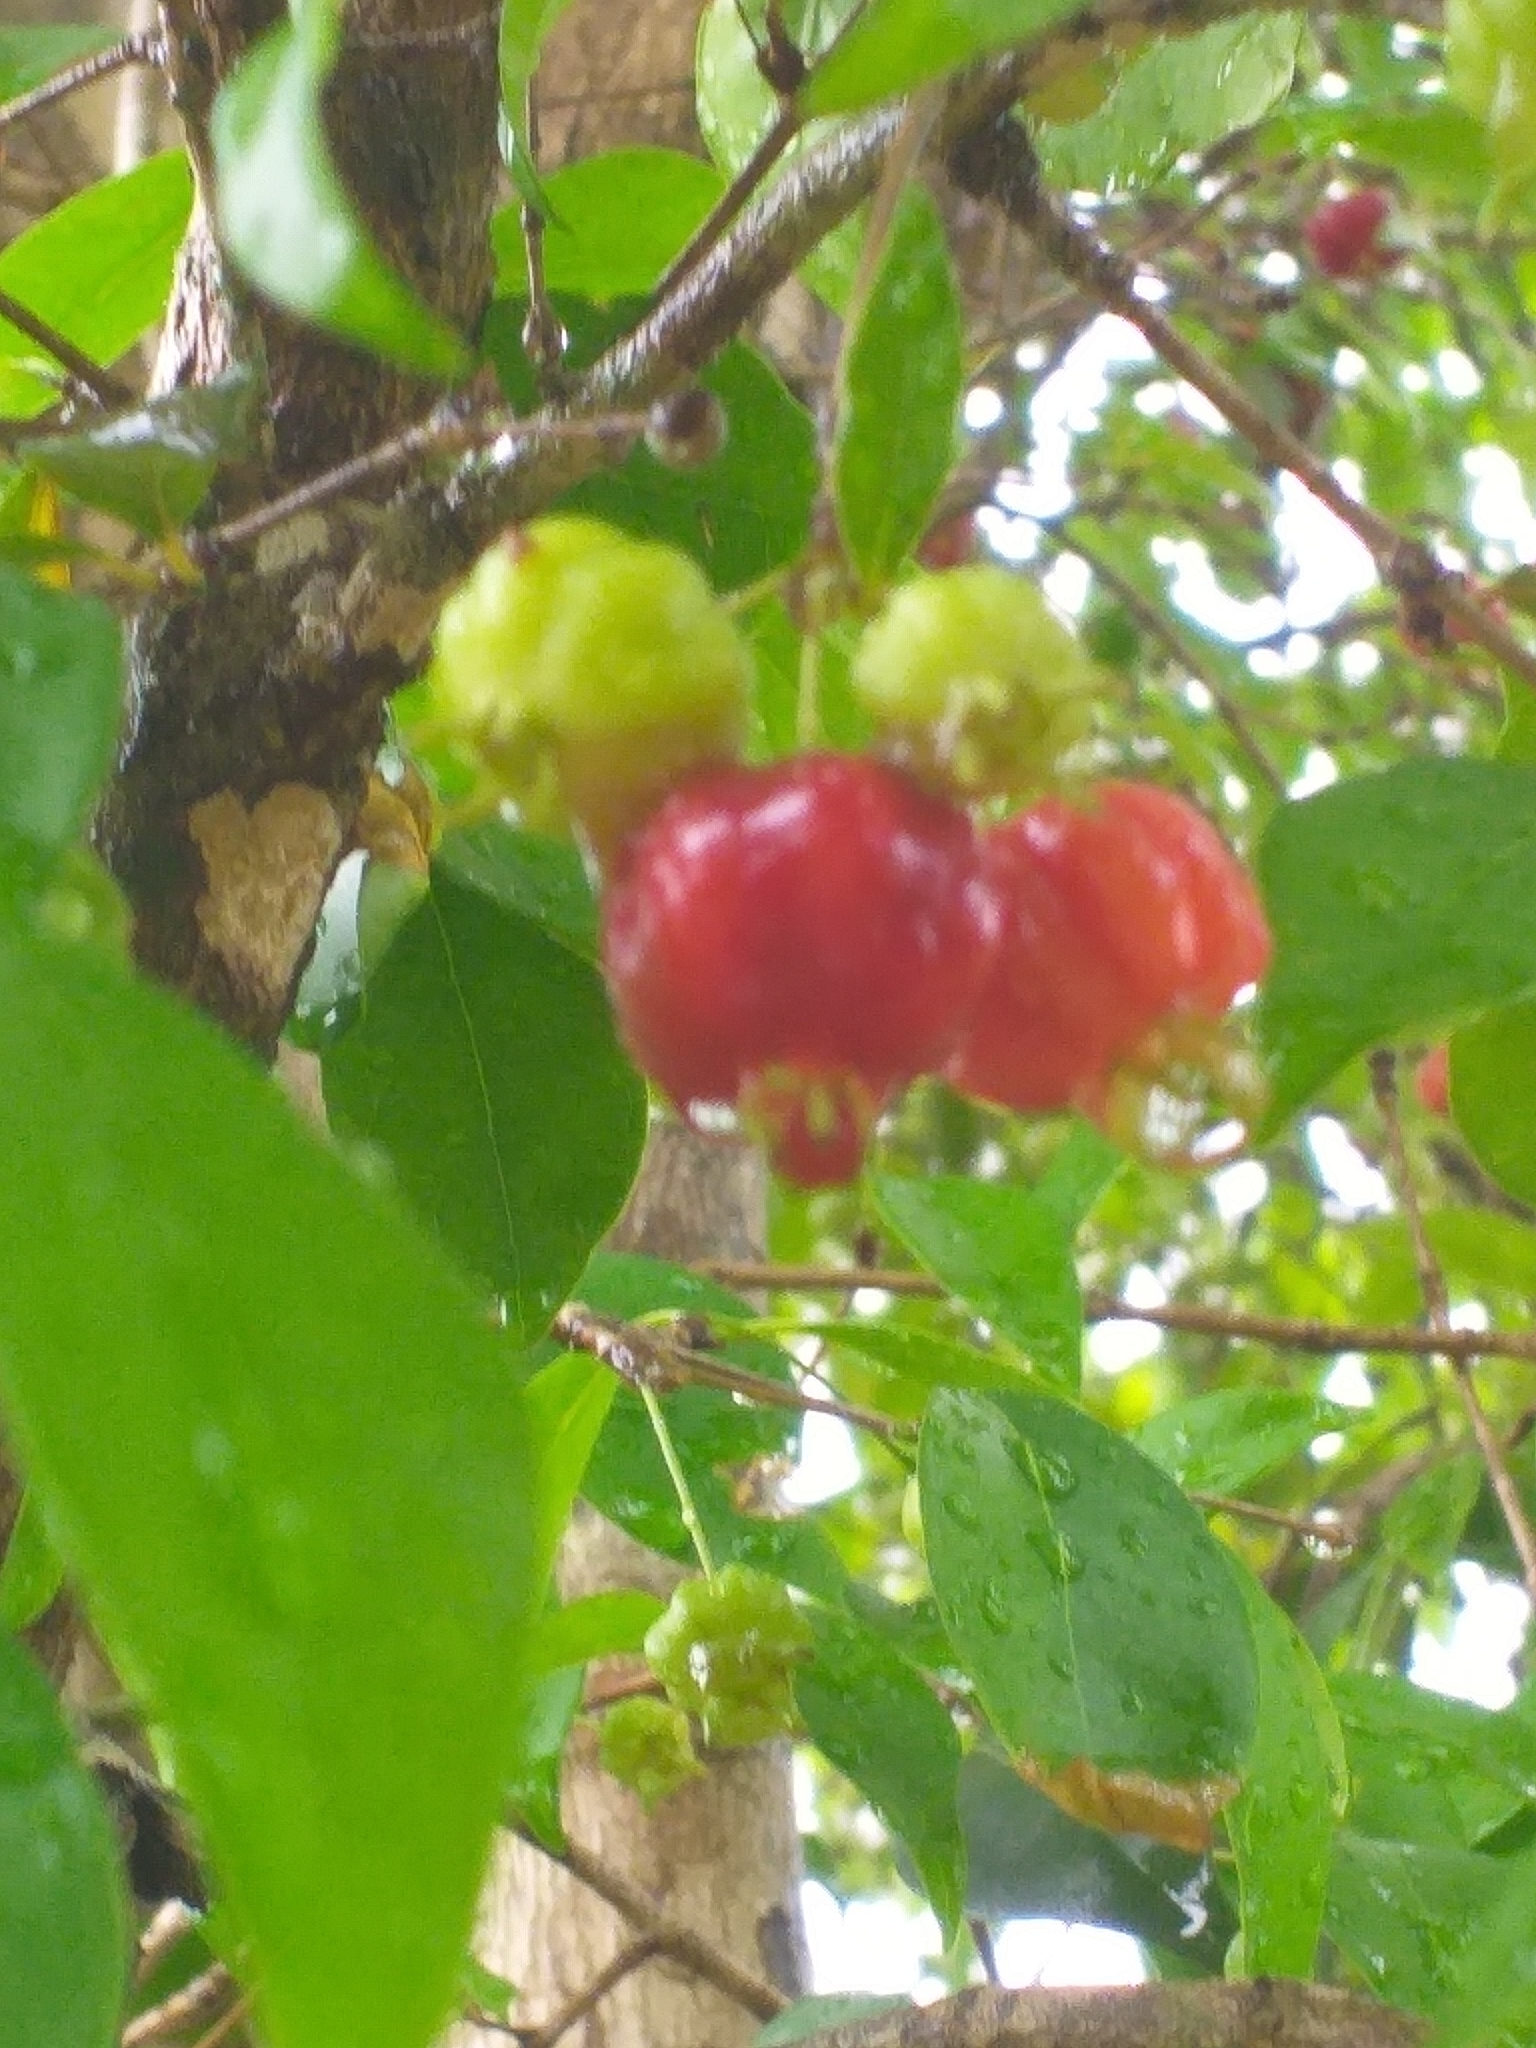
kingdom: Plantae
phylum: Tracheophyta
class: Magnoliopsida
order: Myrtales
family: Myrtaceae
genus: Eugenia
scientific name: Eugenia uniflora
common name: Surinam cherry
